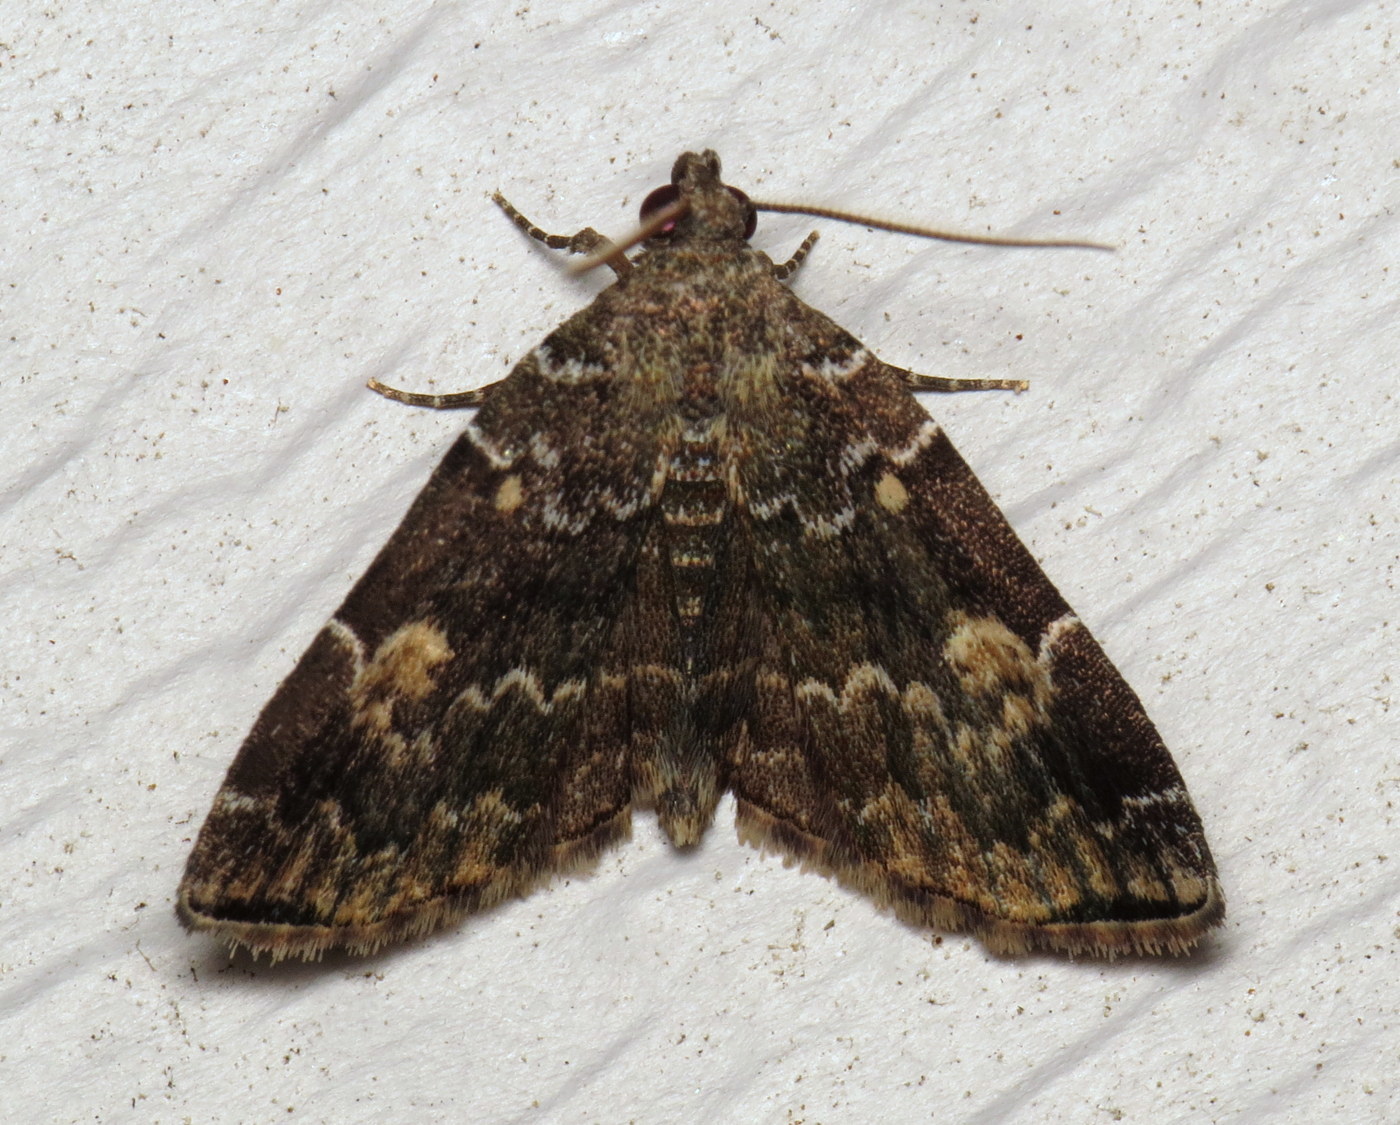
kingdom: Animalia
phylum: Arthropoda
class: Insecta
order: Lepidoptera
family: Erebidae
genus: Idia
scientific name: Idia americalis
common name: American idia moth
